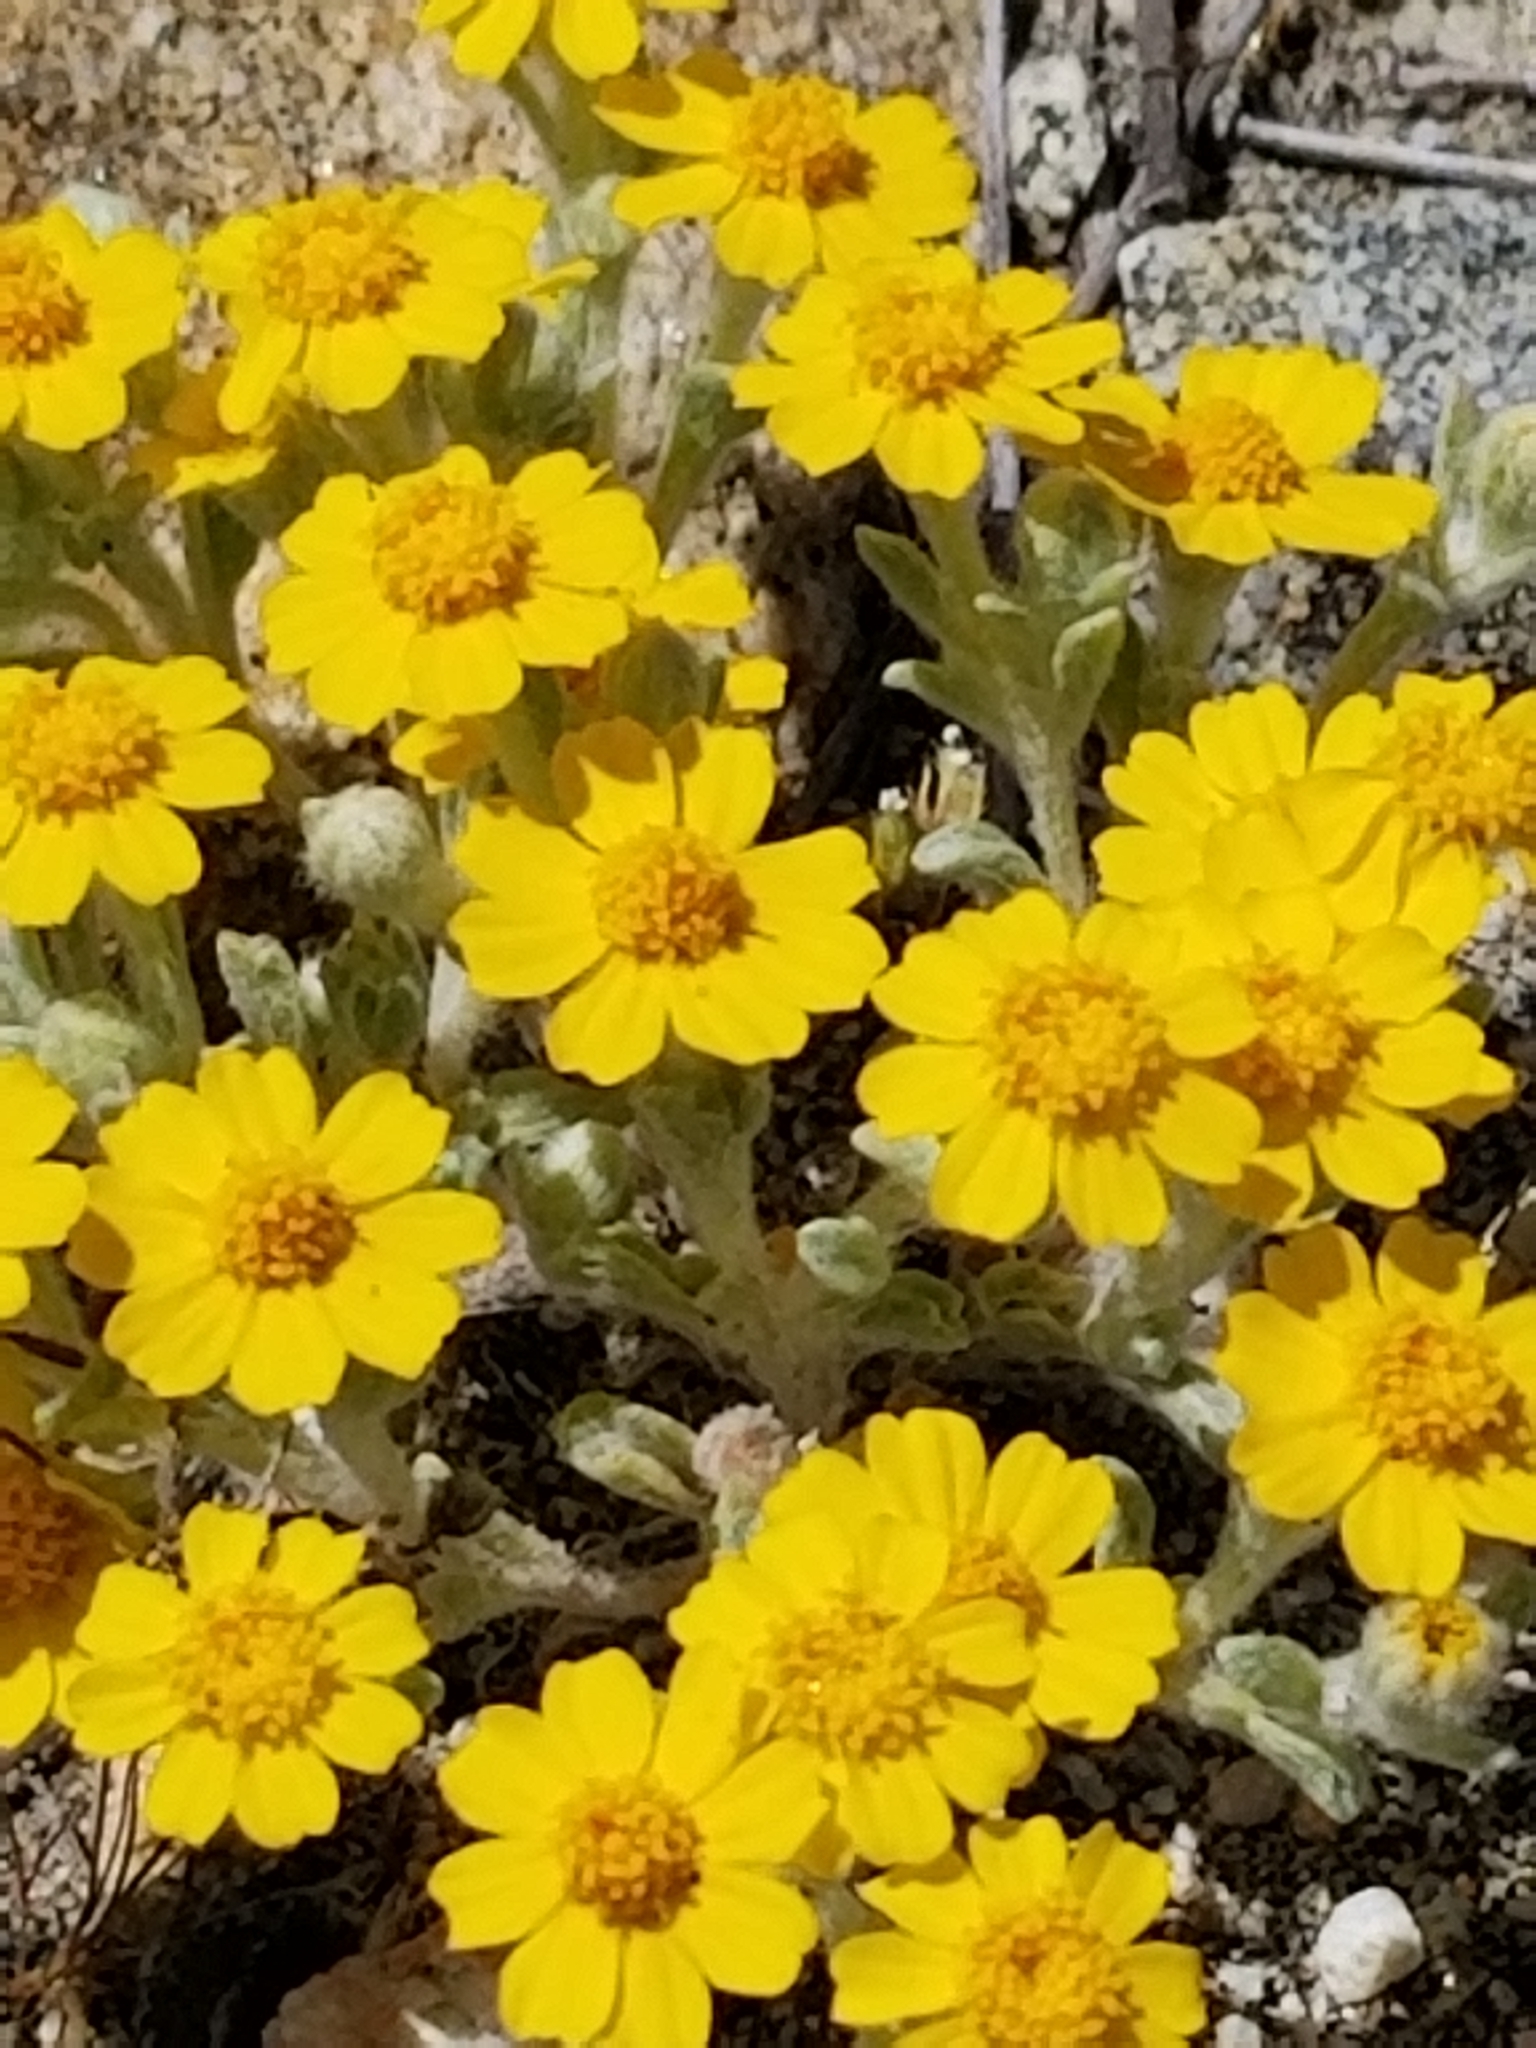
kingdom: Plantae
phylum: Tracheophyta
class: Magnoliopsida
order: Asterales
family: Asteraceae
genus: Eriophyllum
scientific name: Eriophyllum wallacei
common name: Wallace's woolly daisy
